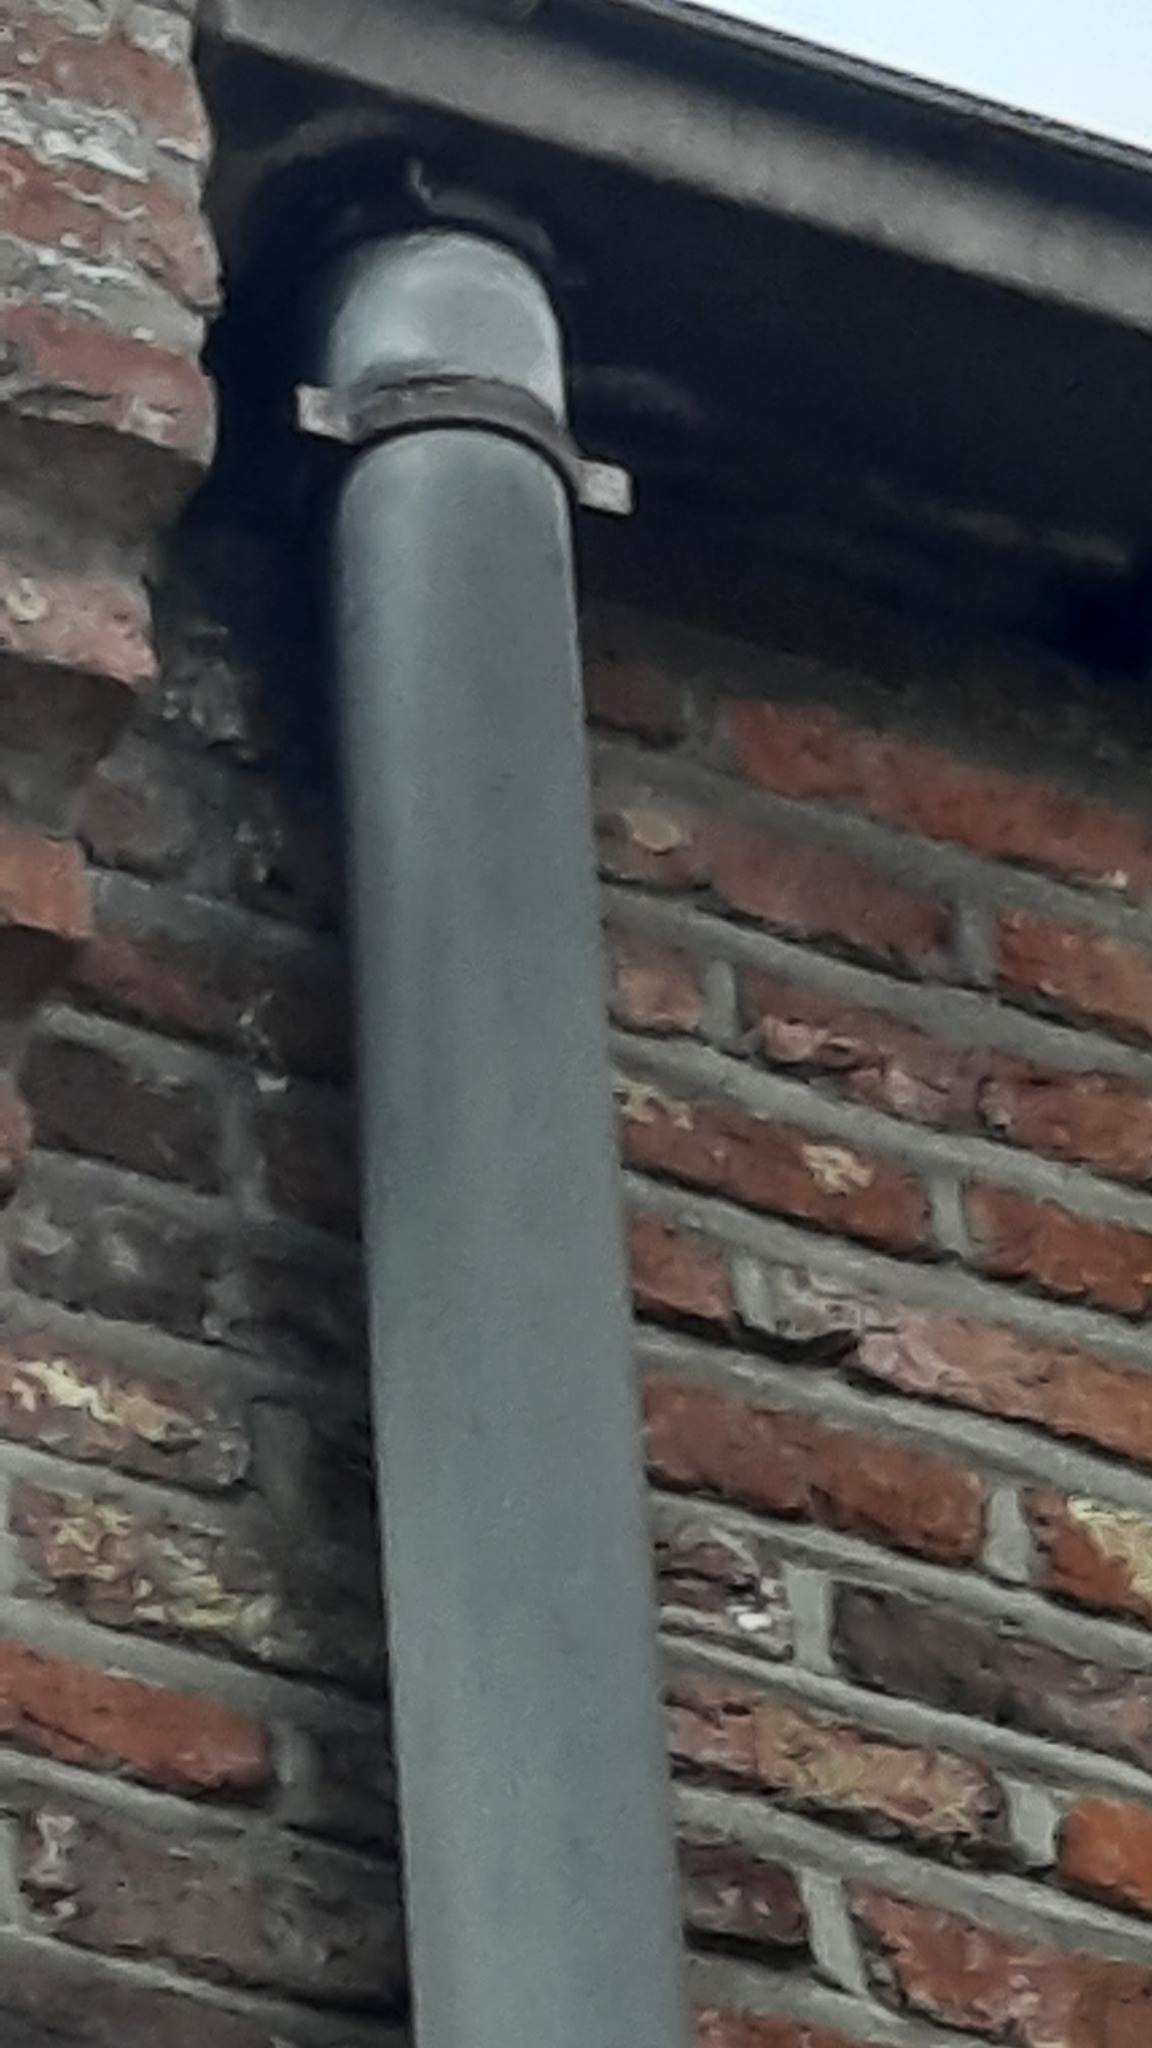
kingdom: Animalia
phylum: Arthropoda
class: Insecta
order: Hymenoptera
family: Vespidae
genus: Vespa
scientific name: Vespa velutina
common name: Asian hornet
